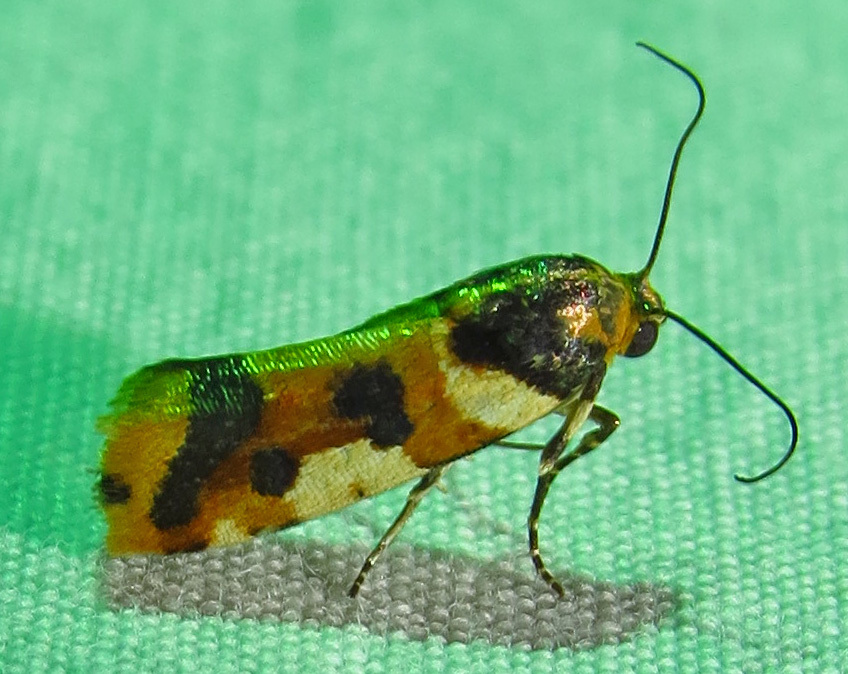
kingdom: Animalia
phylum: Arthropoda
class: Insecta
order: Lepidoptera
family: Noctuidae
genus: Acontia
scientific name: Acontia dama
